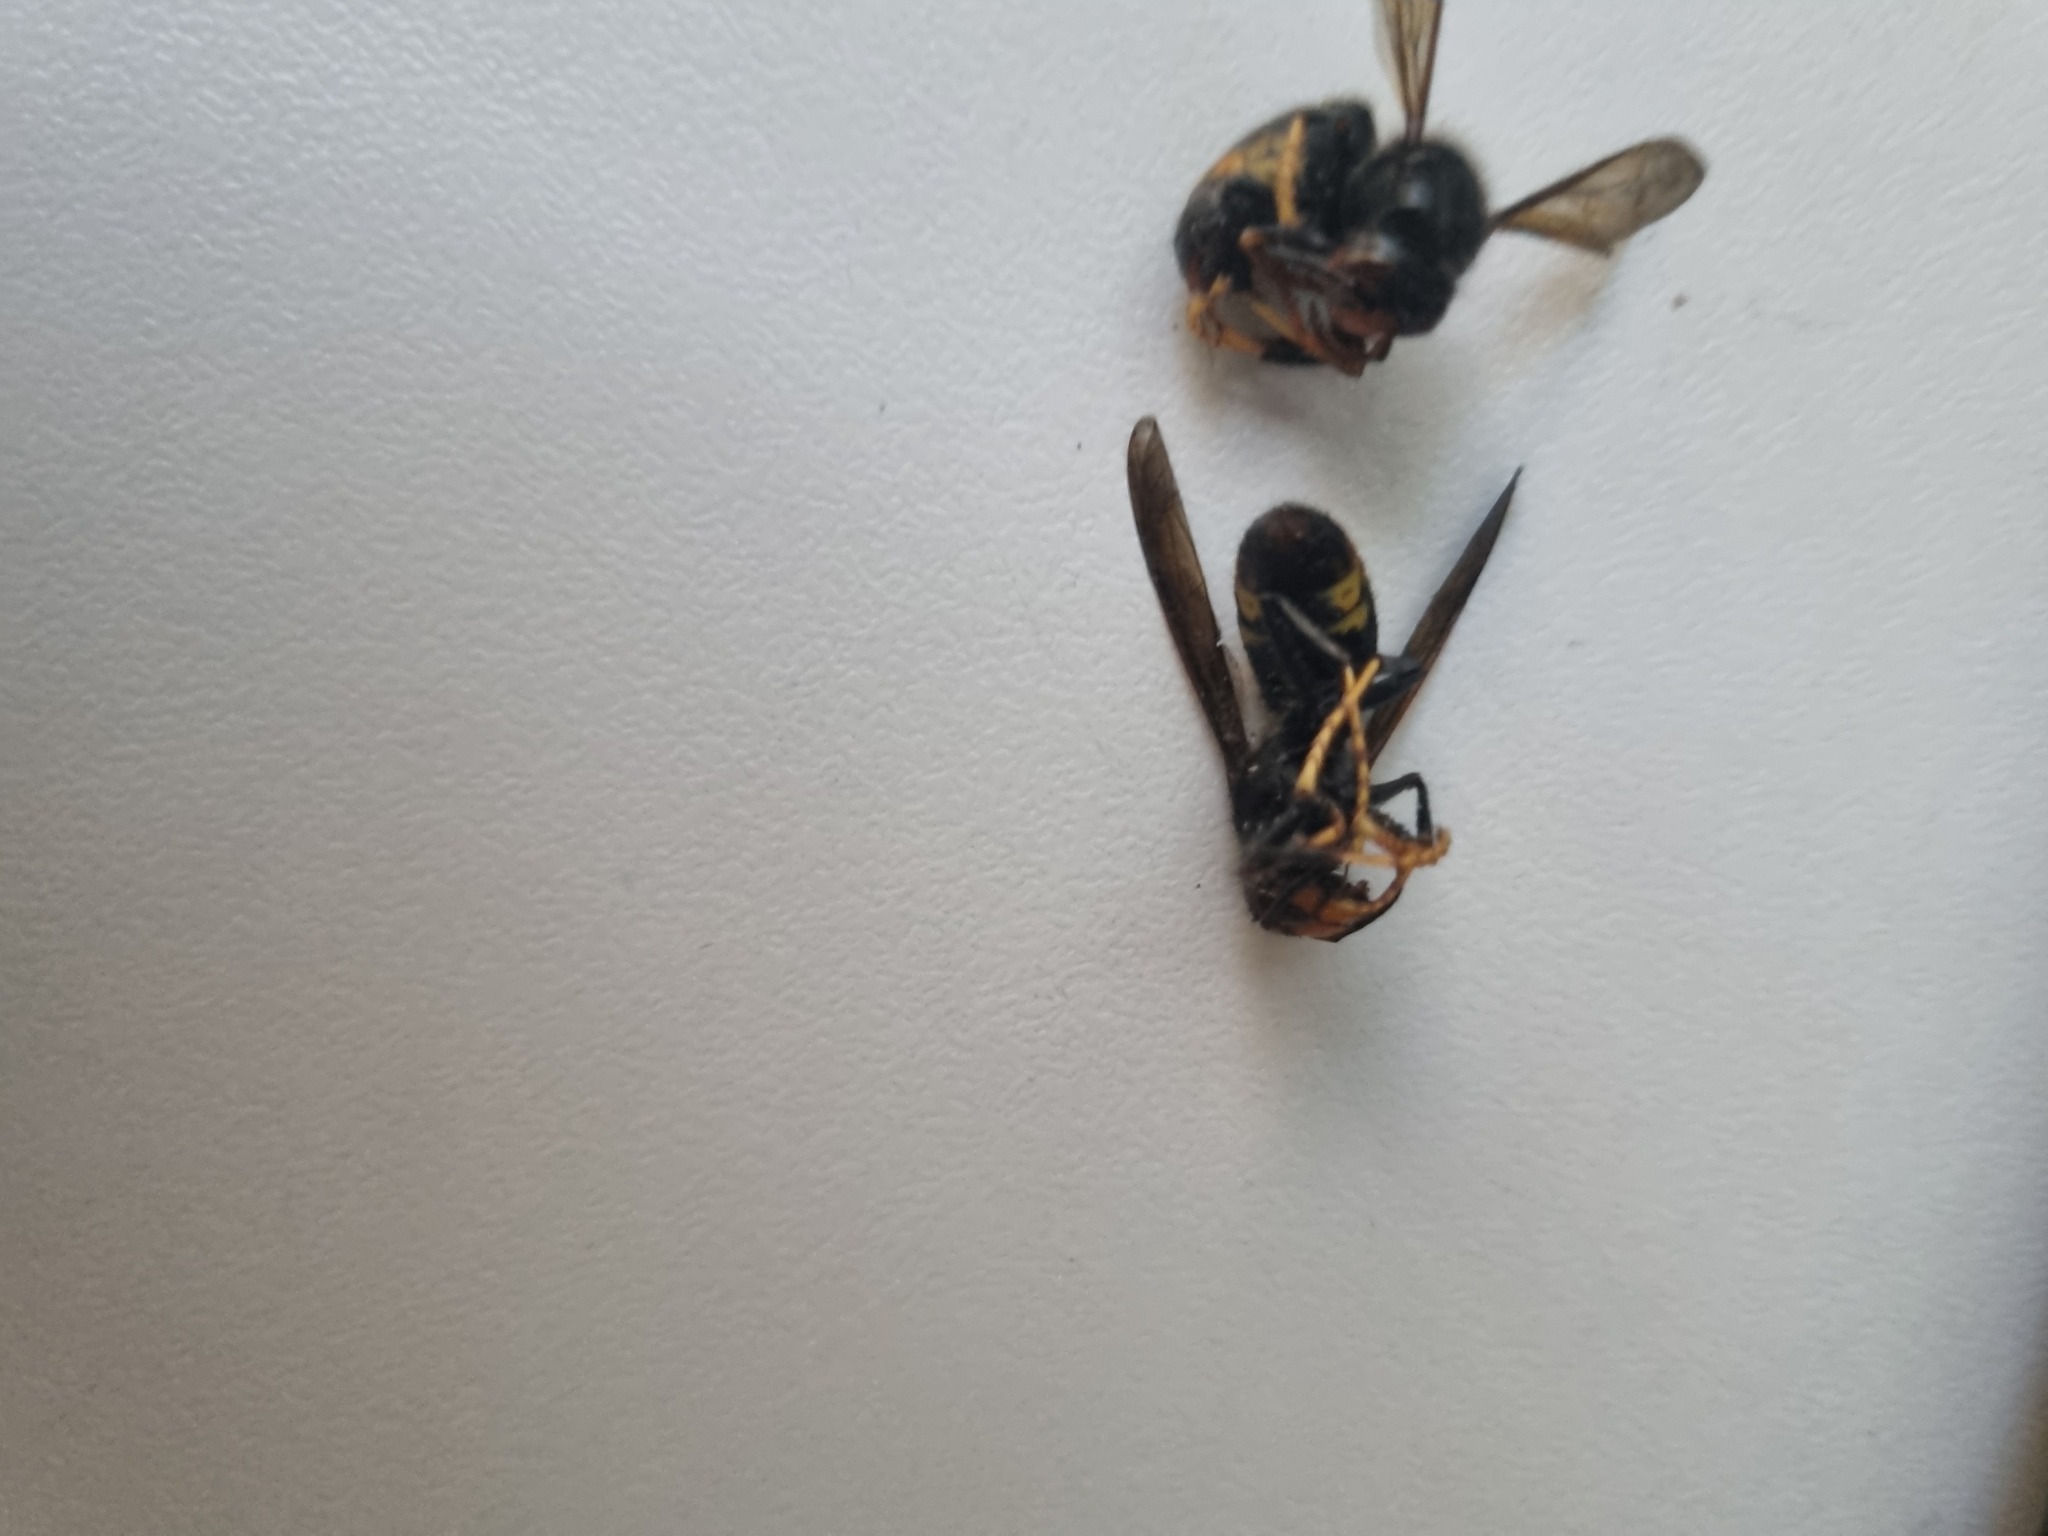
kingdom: Animalia
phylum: Arthropoda
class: Insecta
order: Hymenoptera
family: Vespidae
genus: Vespa
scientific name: Vespa velutina
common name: Asian hornet
